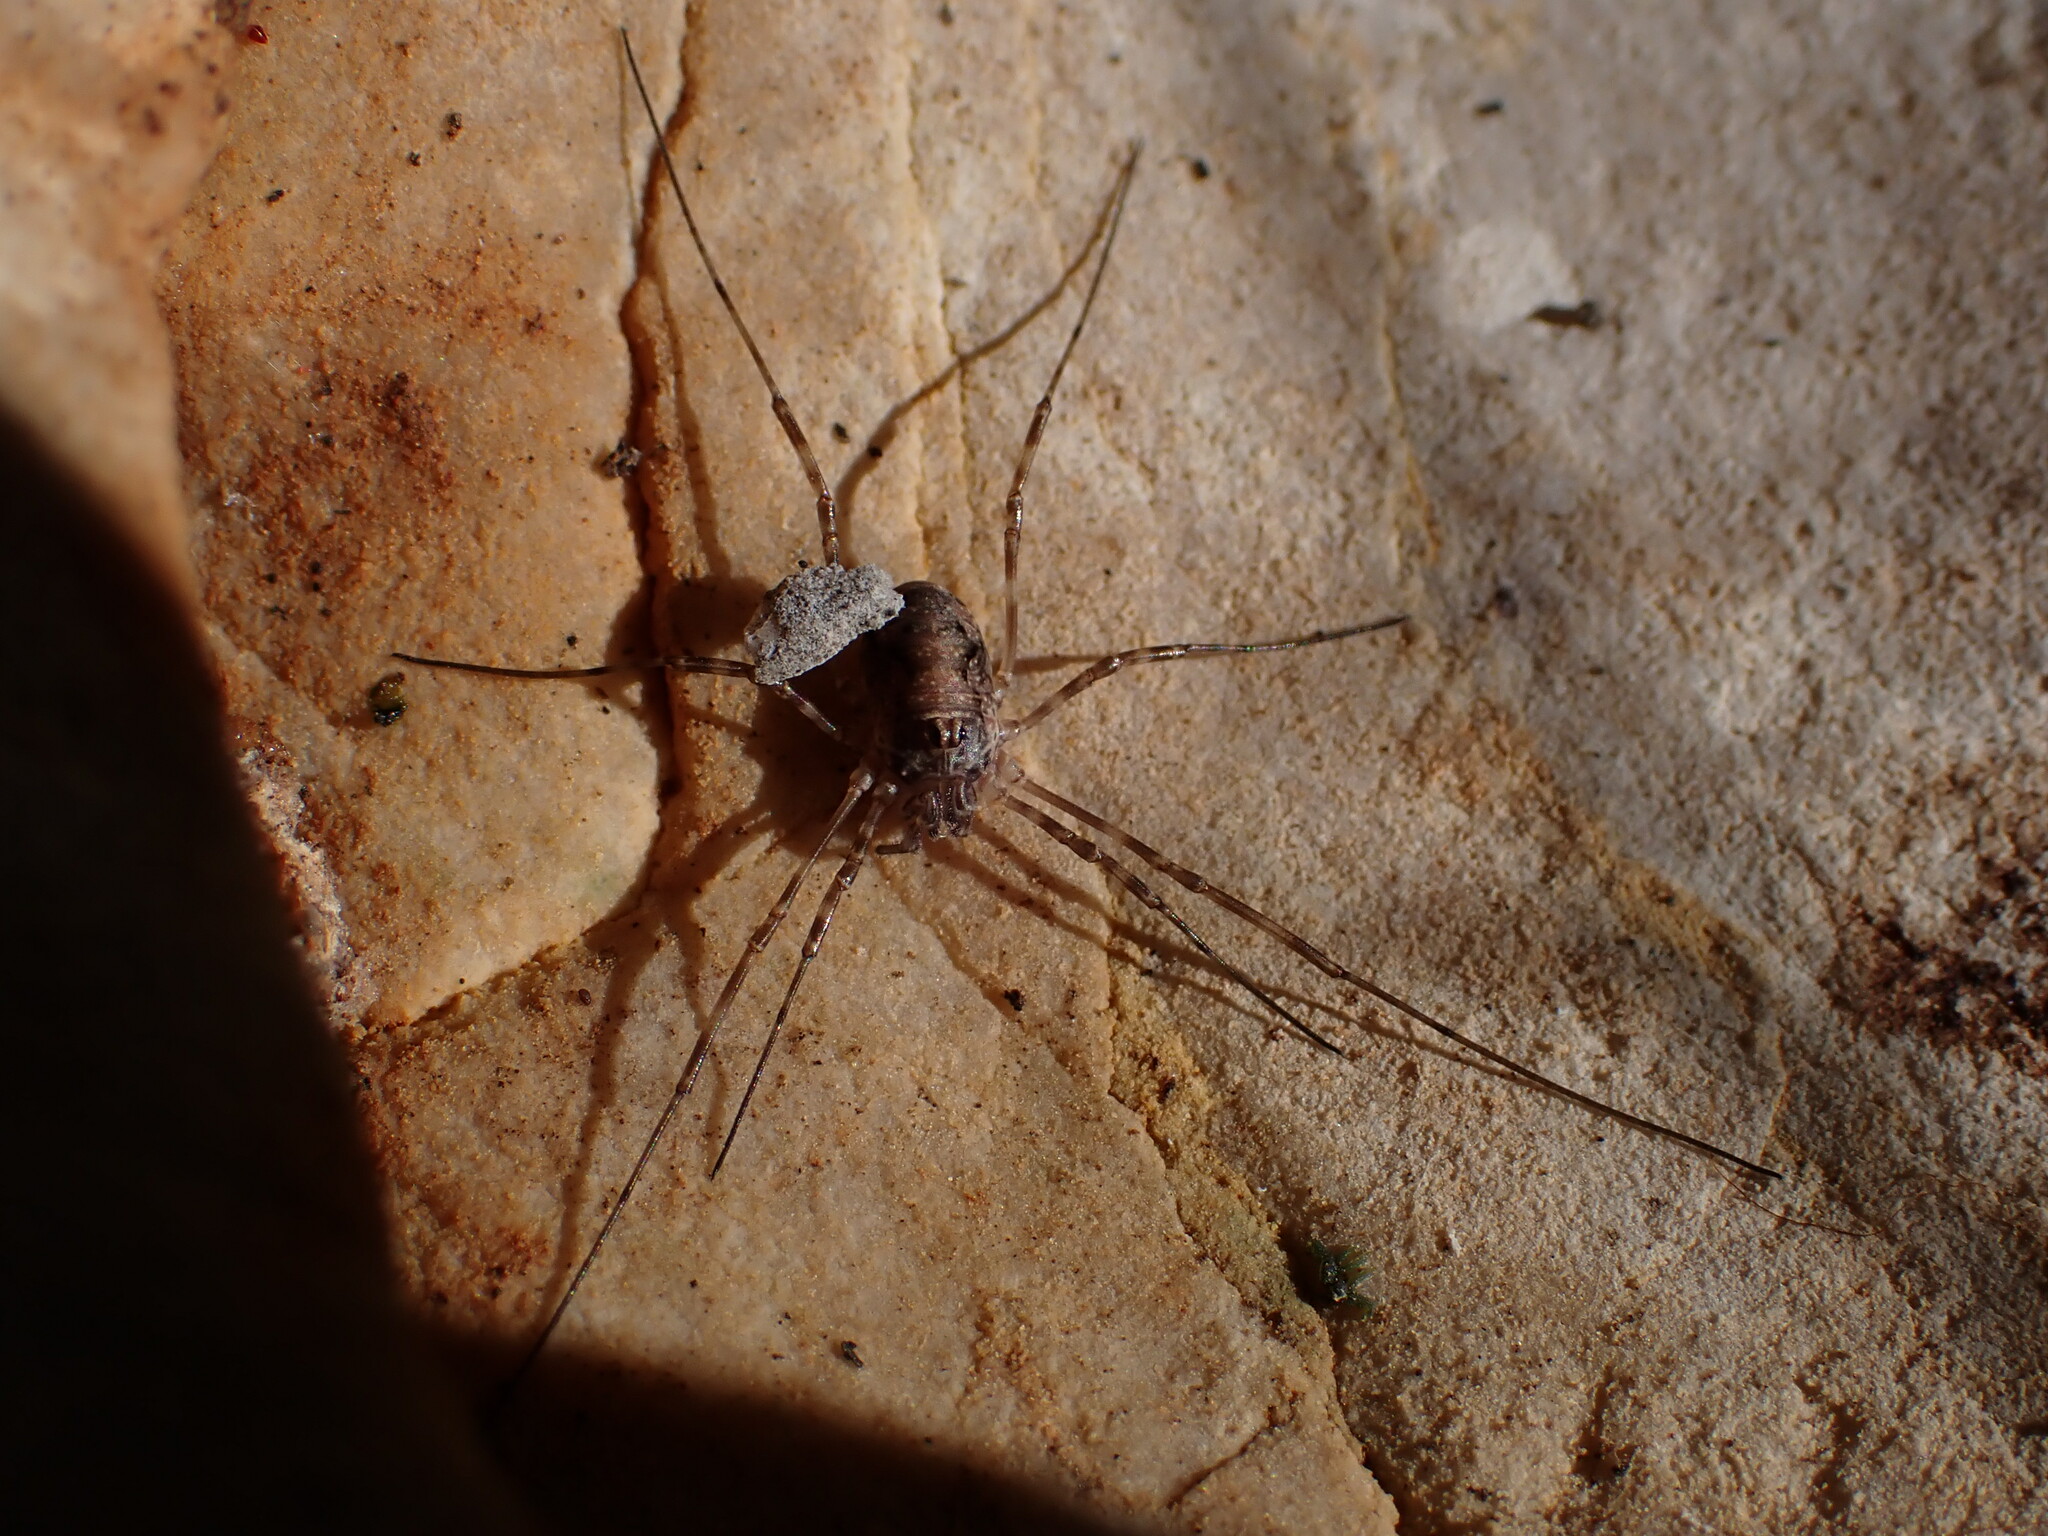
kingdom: Animalia
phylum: Arthropoda
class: Arachnida
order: Opiliones
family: Phalangiidae
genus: Dasylobus
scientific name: Dasylobus graniferus
